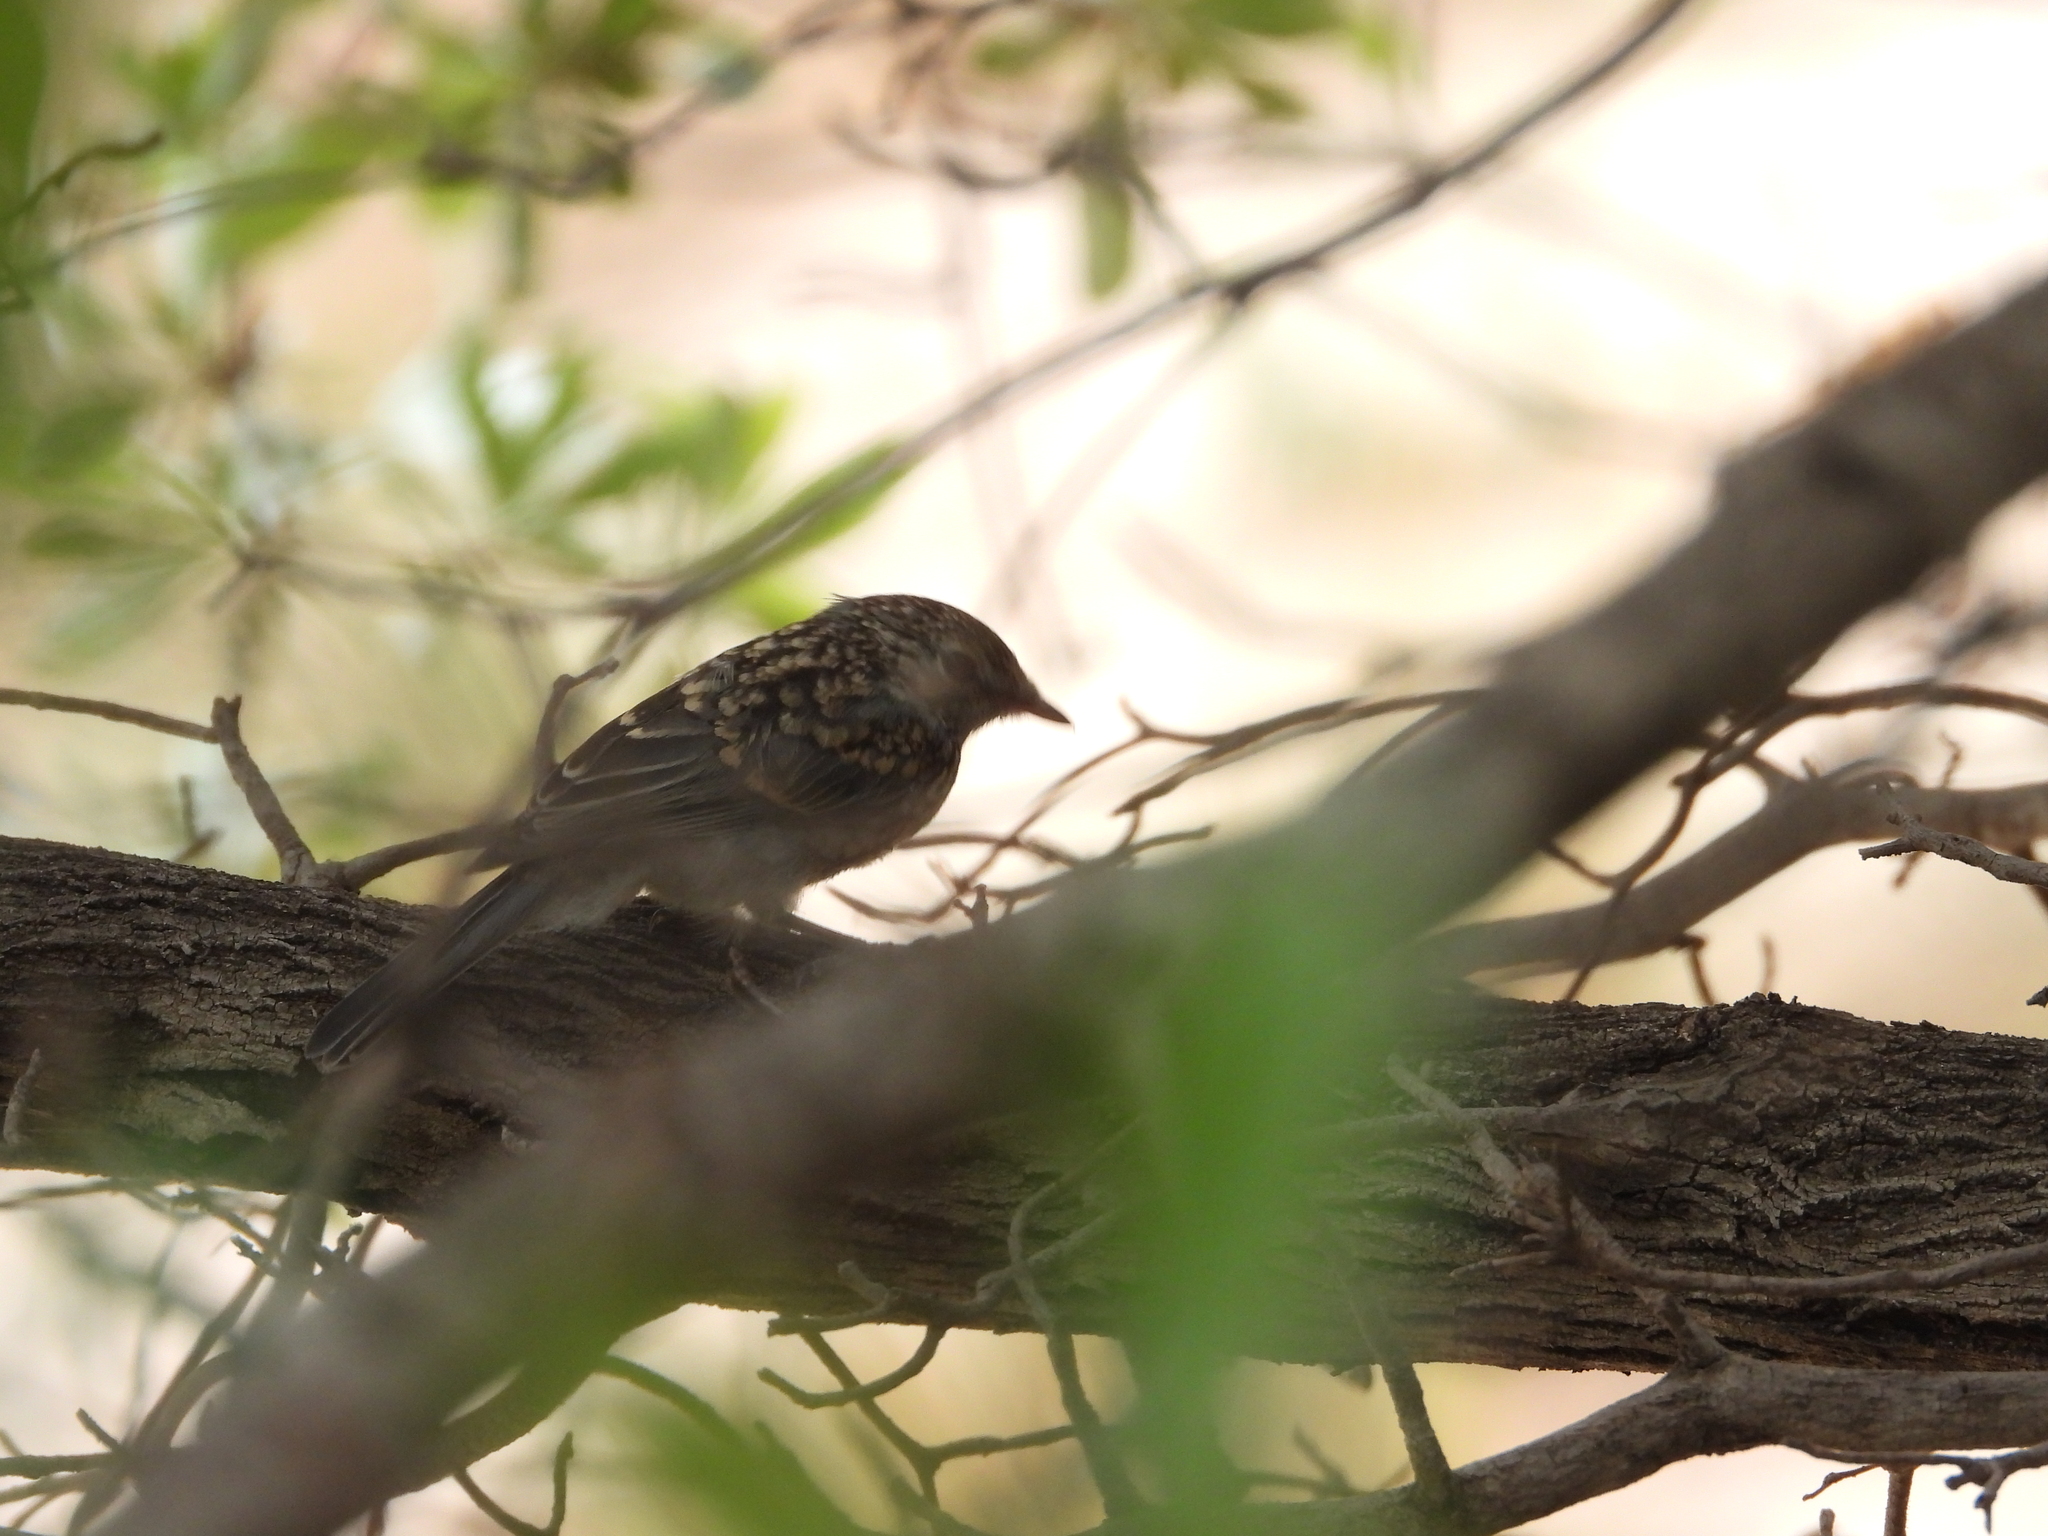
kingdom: Animalia
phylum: Chordata
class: Aves
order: Passeriformes
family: Muscicapidae
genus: Muscicapa
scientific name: Muscicapa caerulescens
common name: Ashy flycatcher
